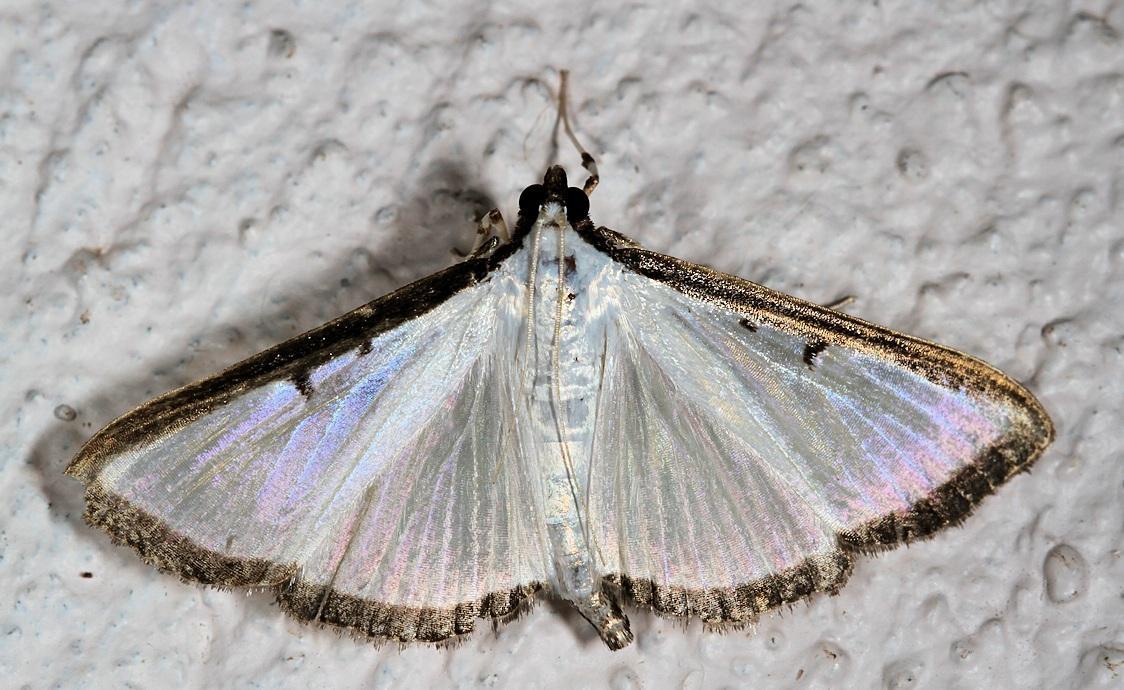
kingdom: Animalia
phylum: Arthropoda
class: Insecta
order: Lepidoptera
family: Crambidae
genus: Cryptographis
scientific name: Cryptographis elealis
